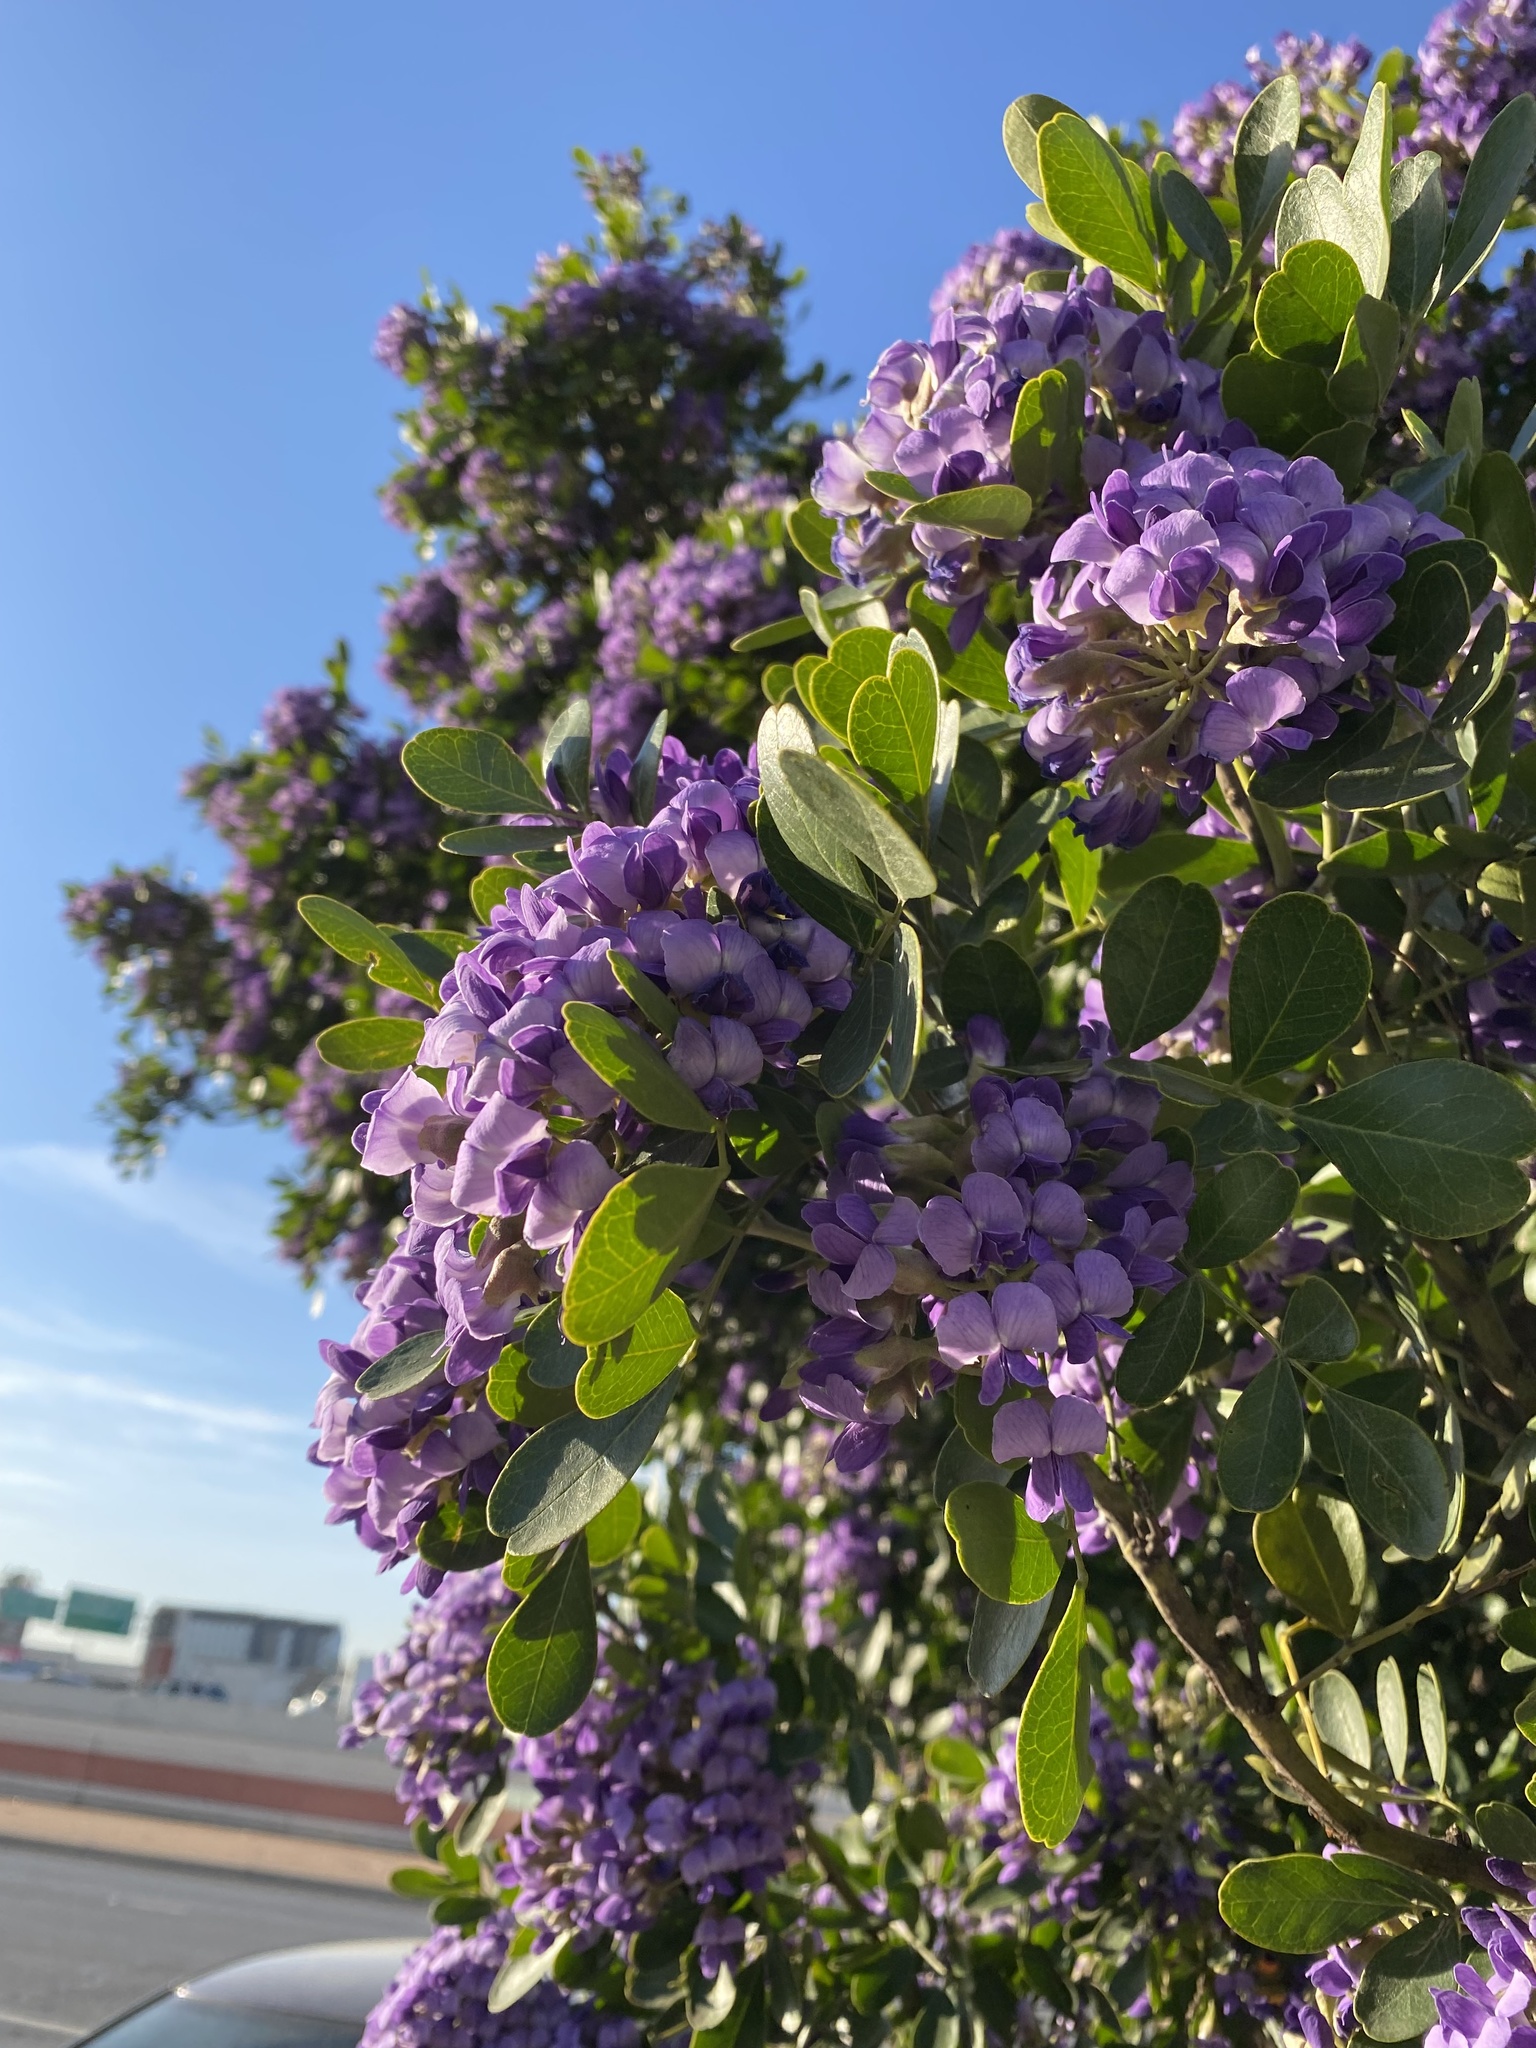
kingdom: Plantae
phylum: Tracheophyta
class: Magnoliopsida
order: Fabales
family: Fabaceae
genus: Dermatophyllum
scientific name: Dermatophyllum secundiflorum
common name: Texas-mountain-laurel
